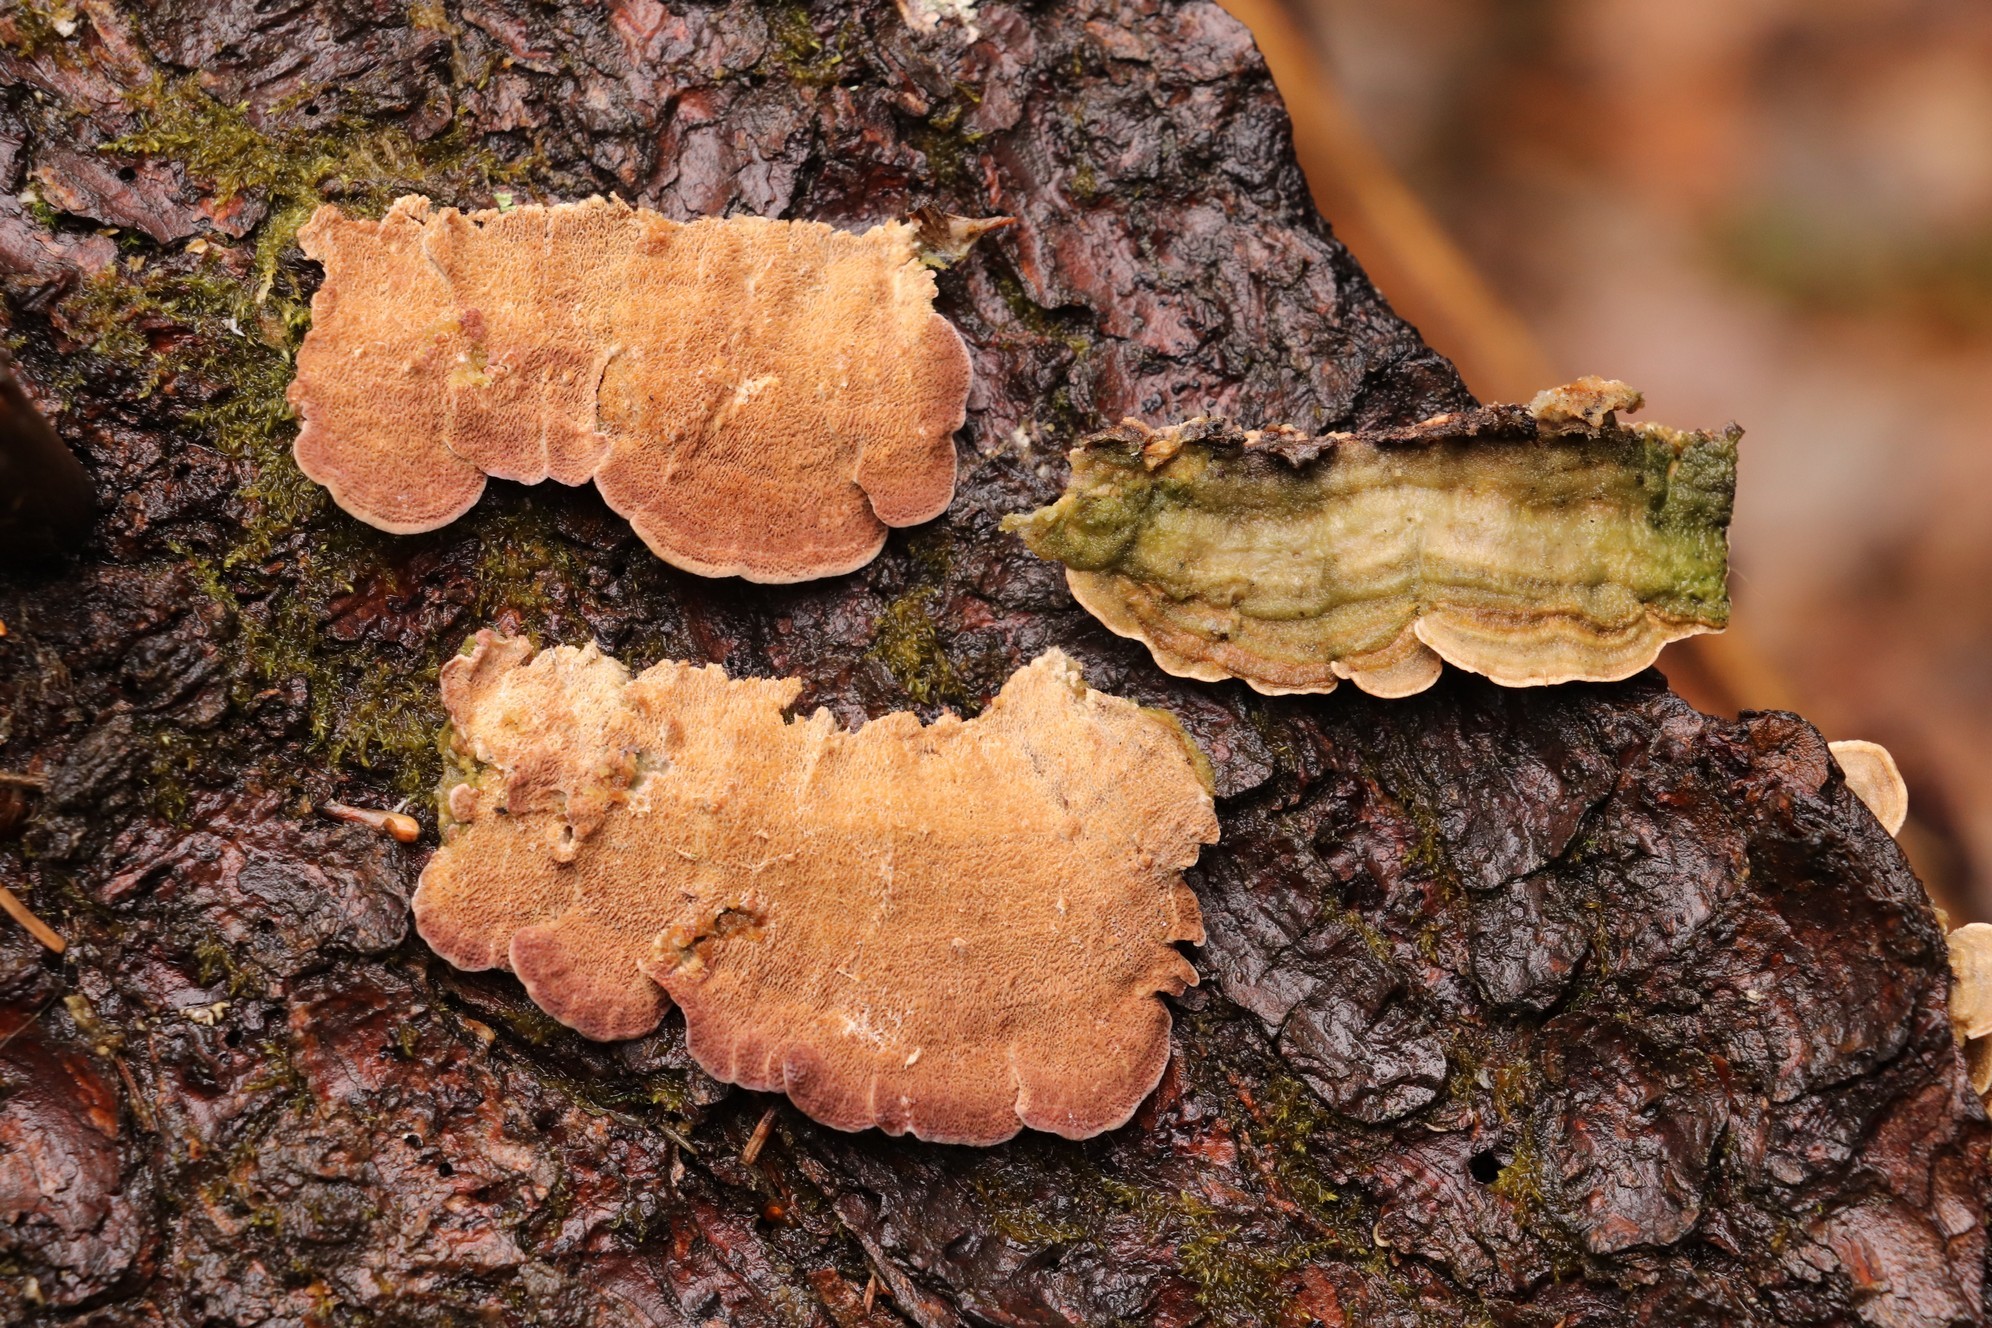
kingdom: Fungi
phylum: Basidiomycota
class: Agaricomycetes
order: Hymenochaetales
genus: Trichaptum
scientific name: Trichaptum fuscoviolaceum
